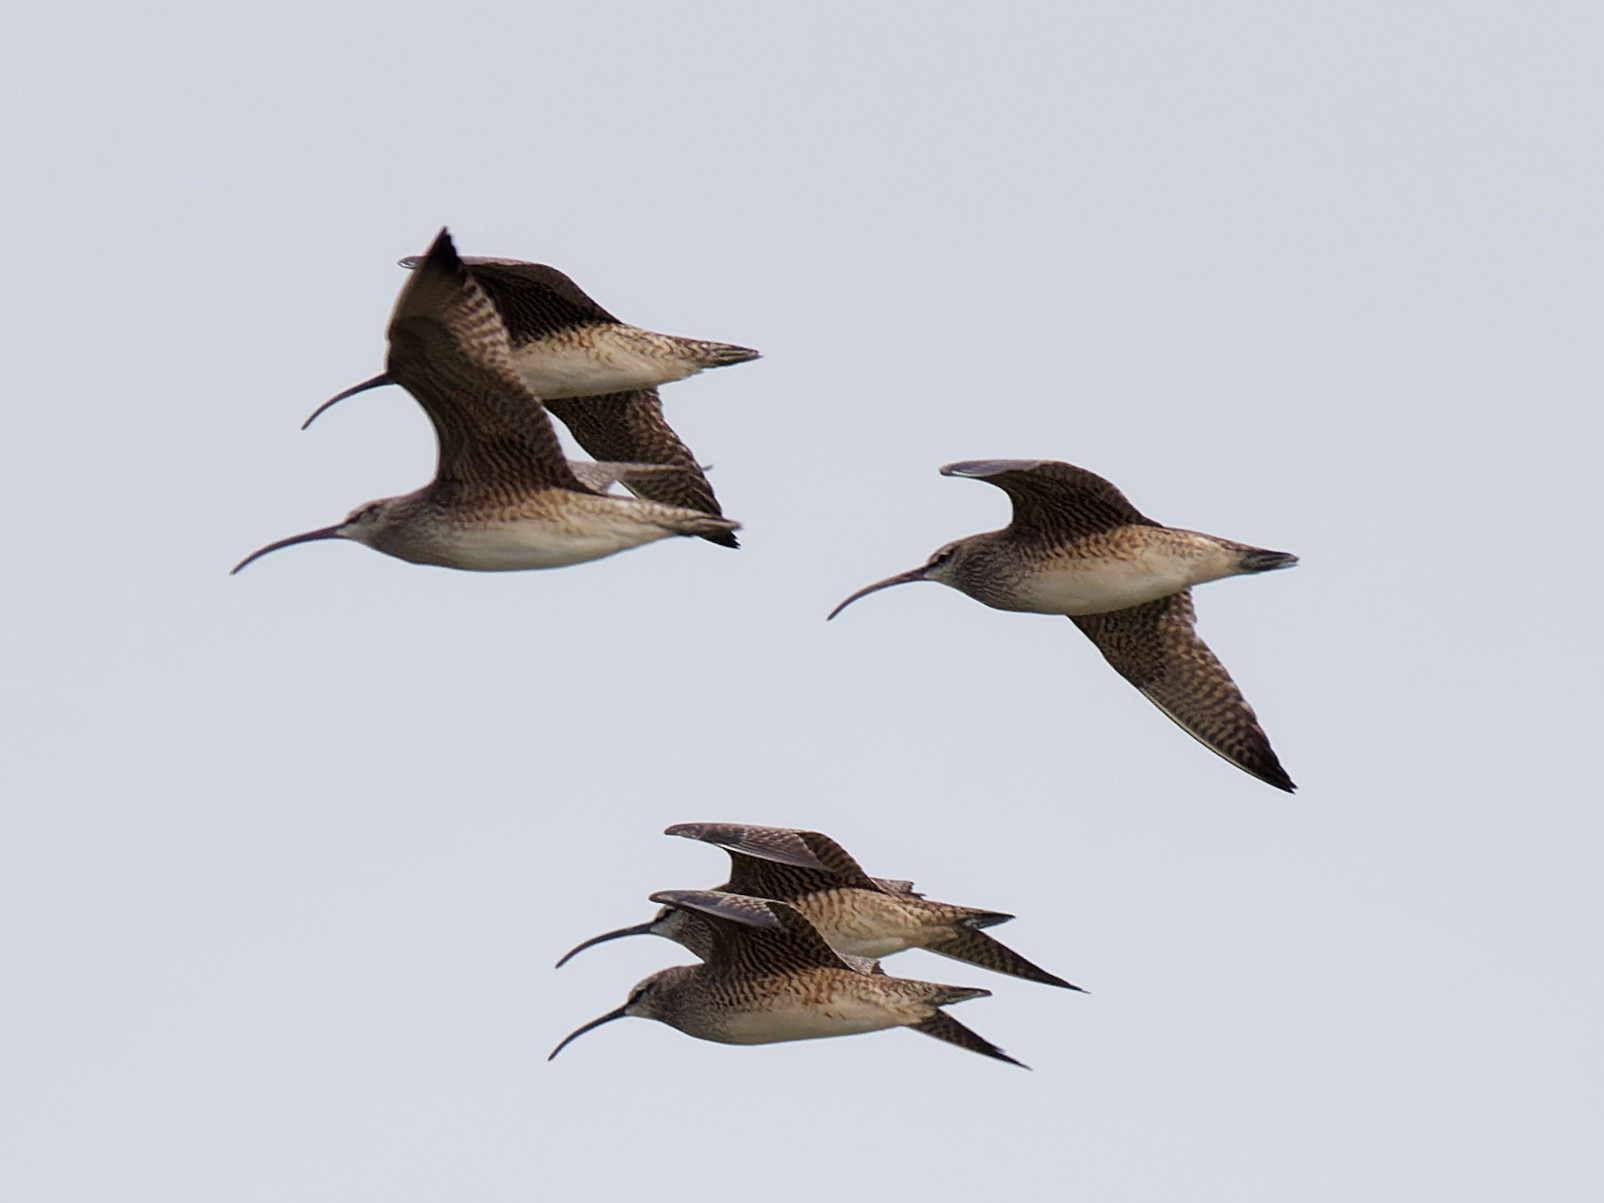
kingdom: Animalia
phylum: Chordata
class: Aves
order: Charadriiformes
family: Scolopacidae
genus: Numenius
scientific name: Numenius phaeopus
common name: Whimbrel
